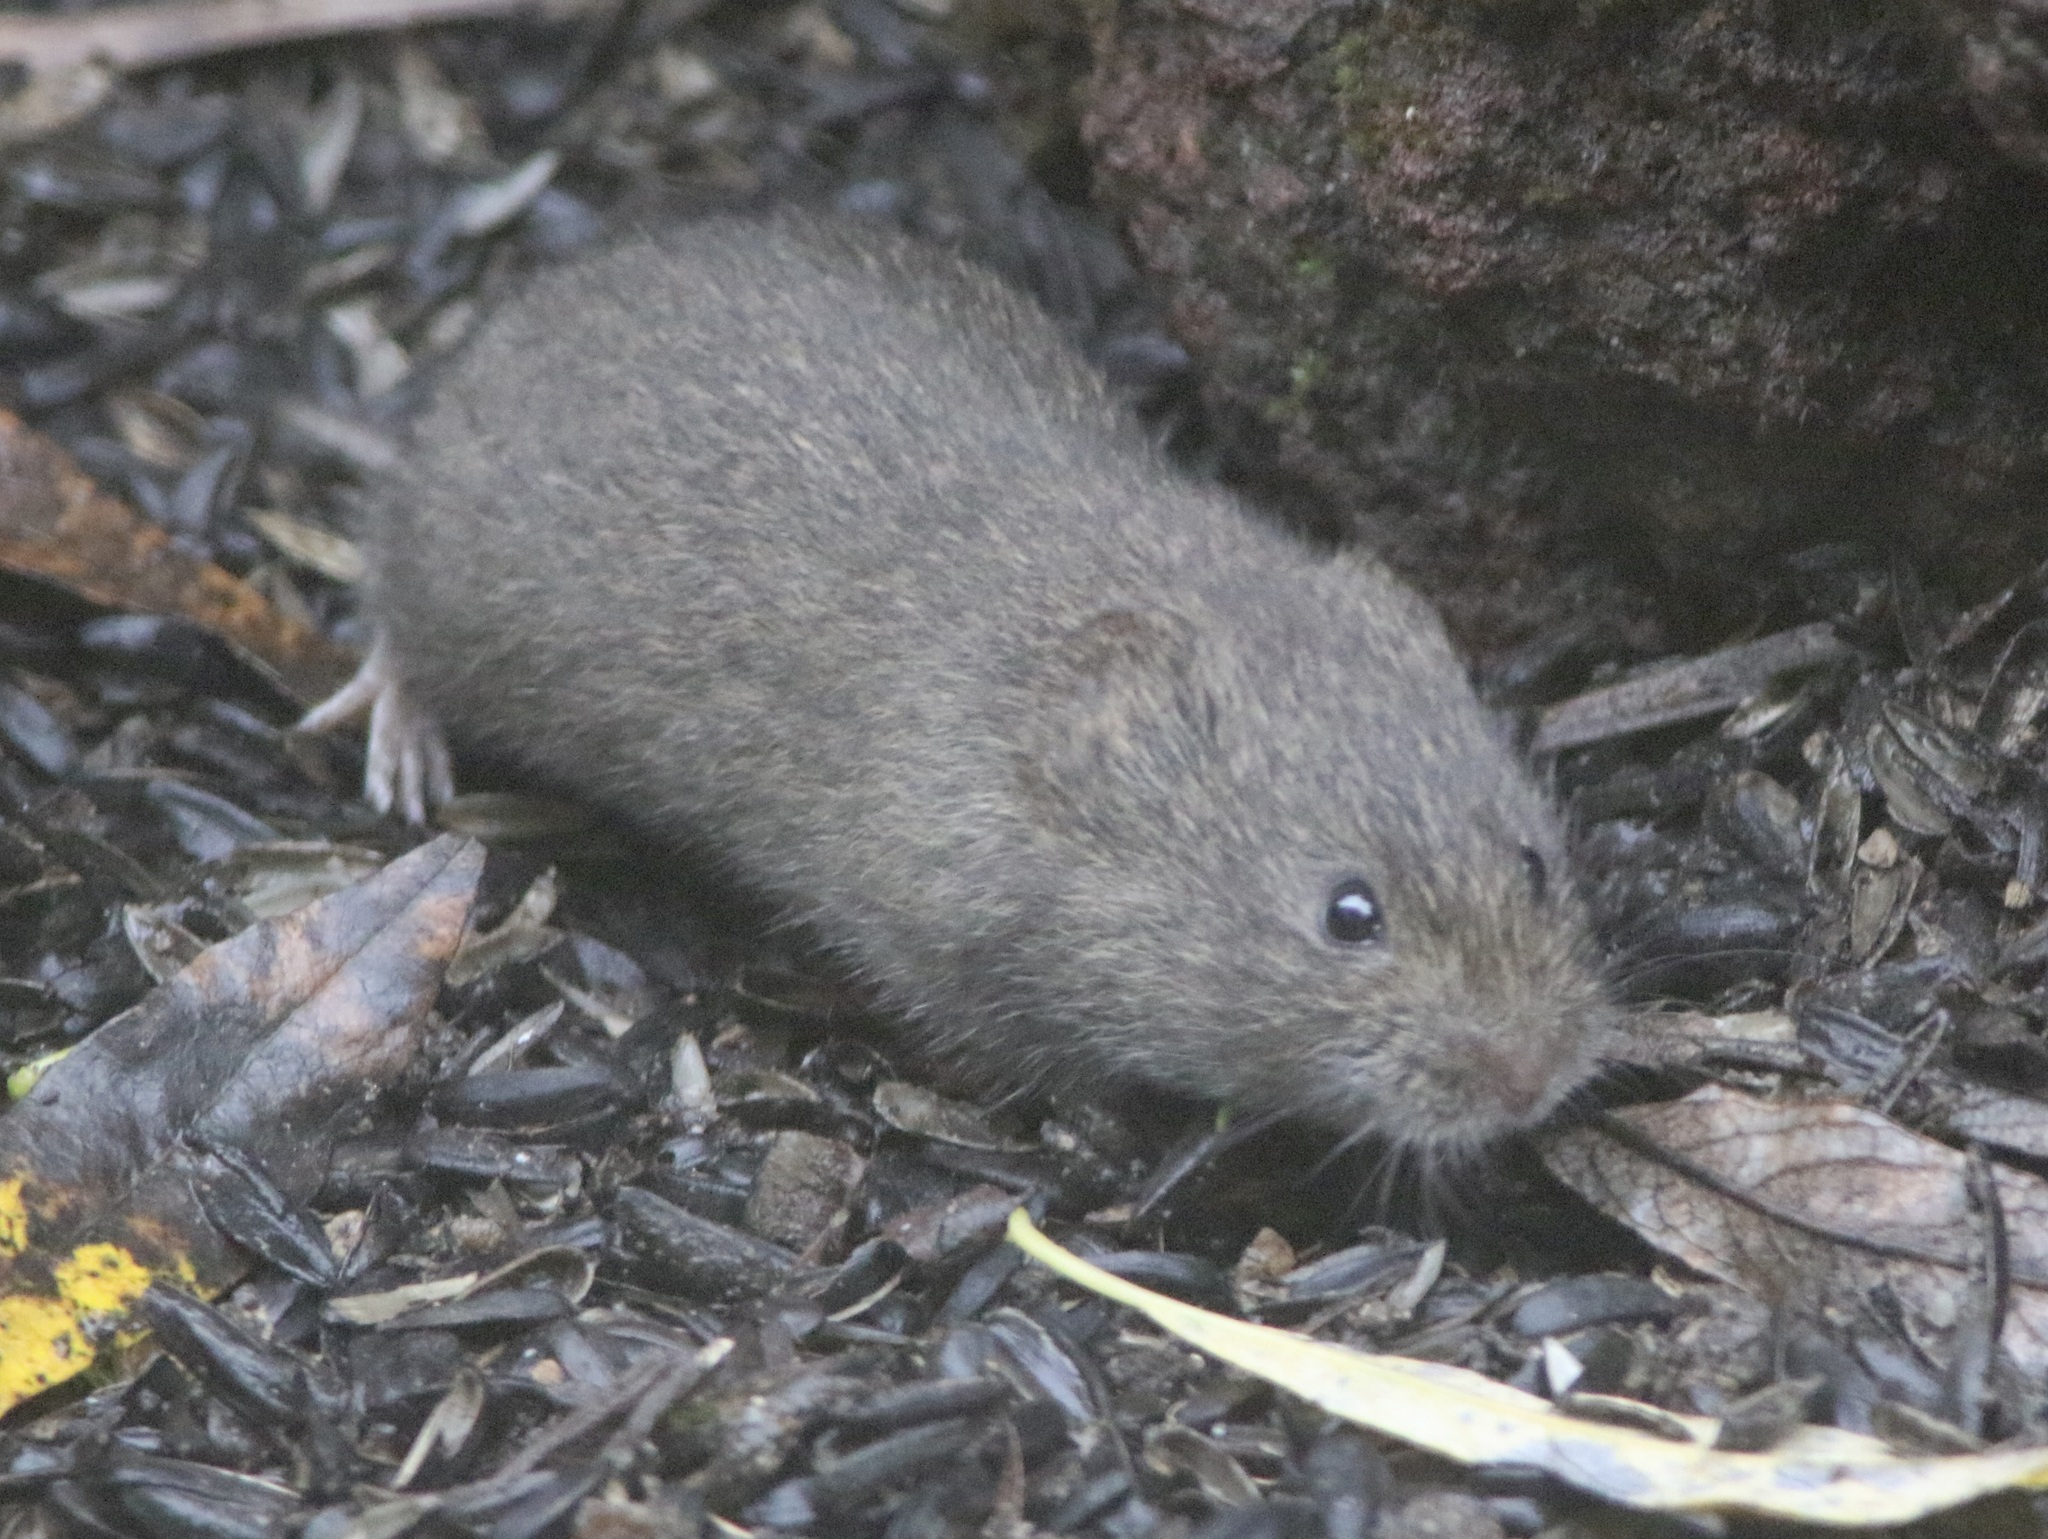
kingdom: Animalia
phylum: Chordata
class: Mammalia
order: Rodentia
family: Cricetidae
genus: Microtus
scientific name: Microtus californicus
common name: California vole
